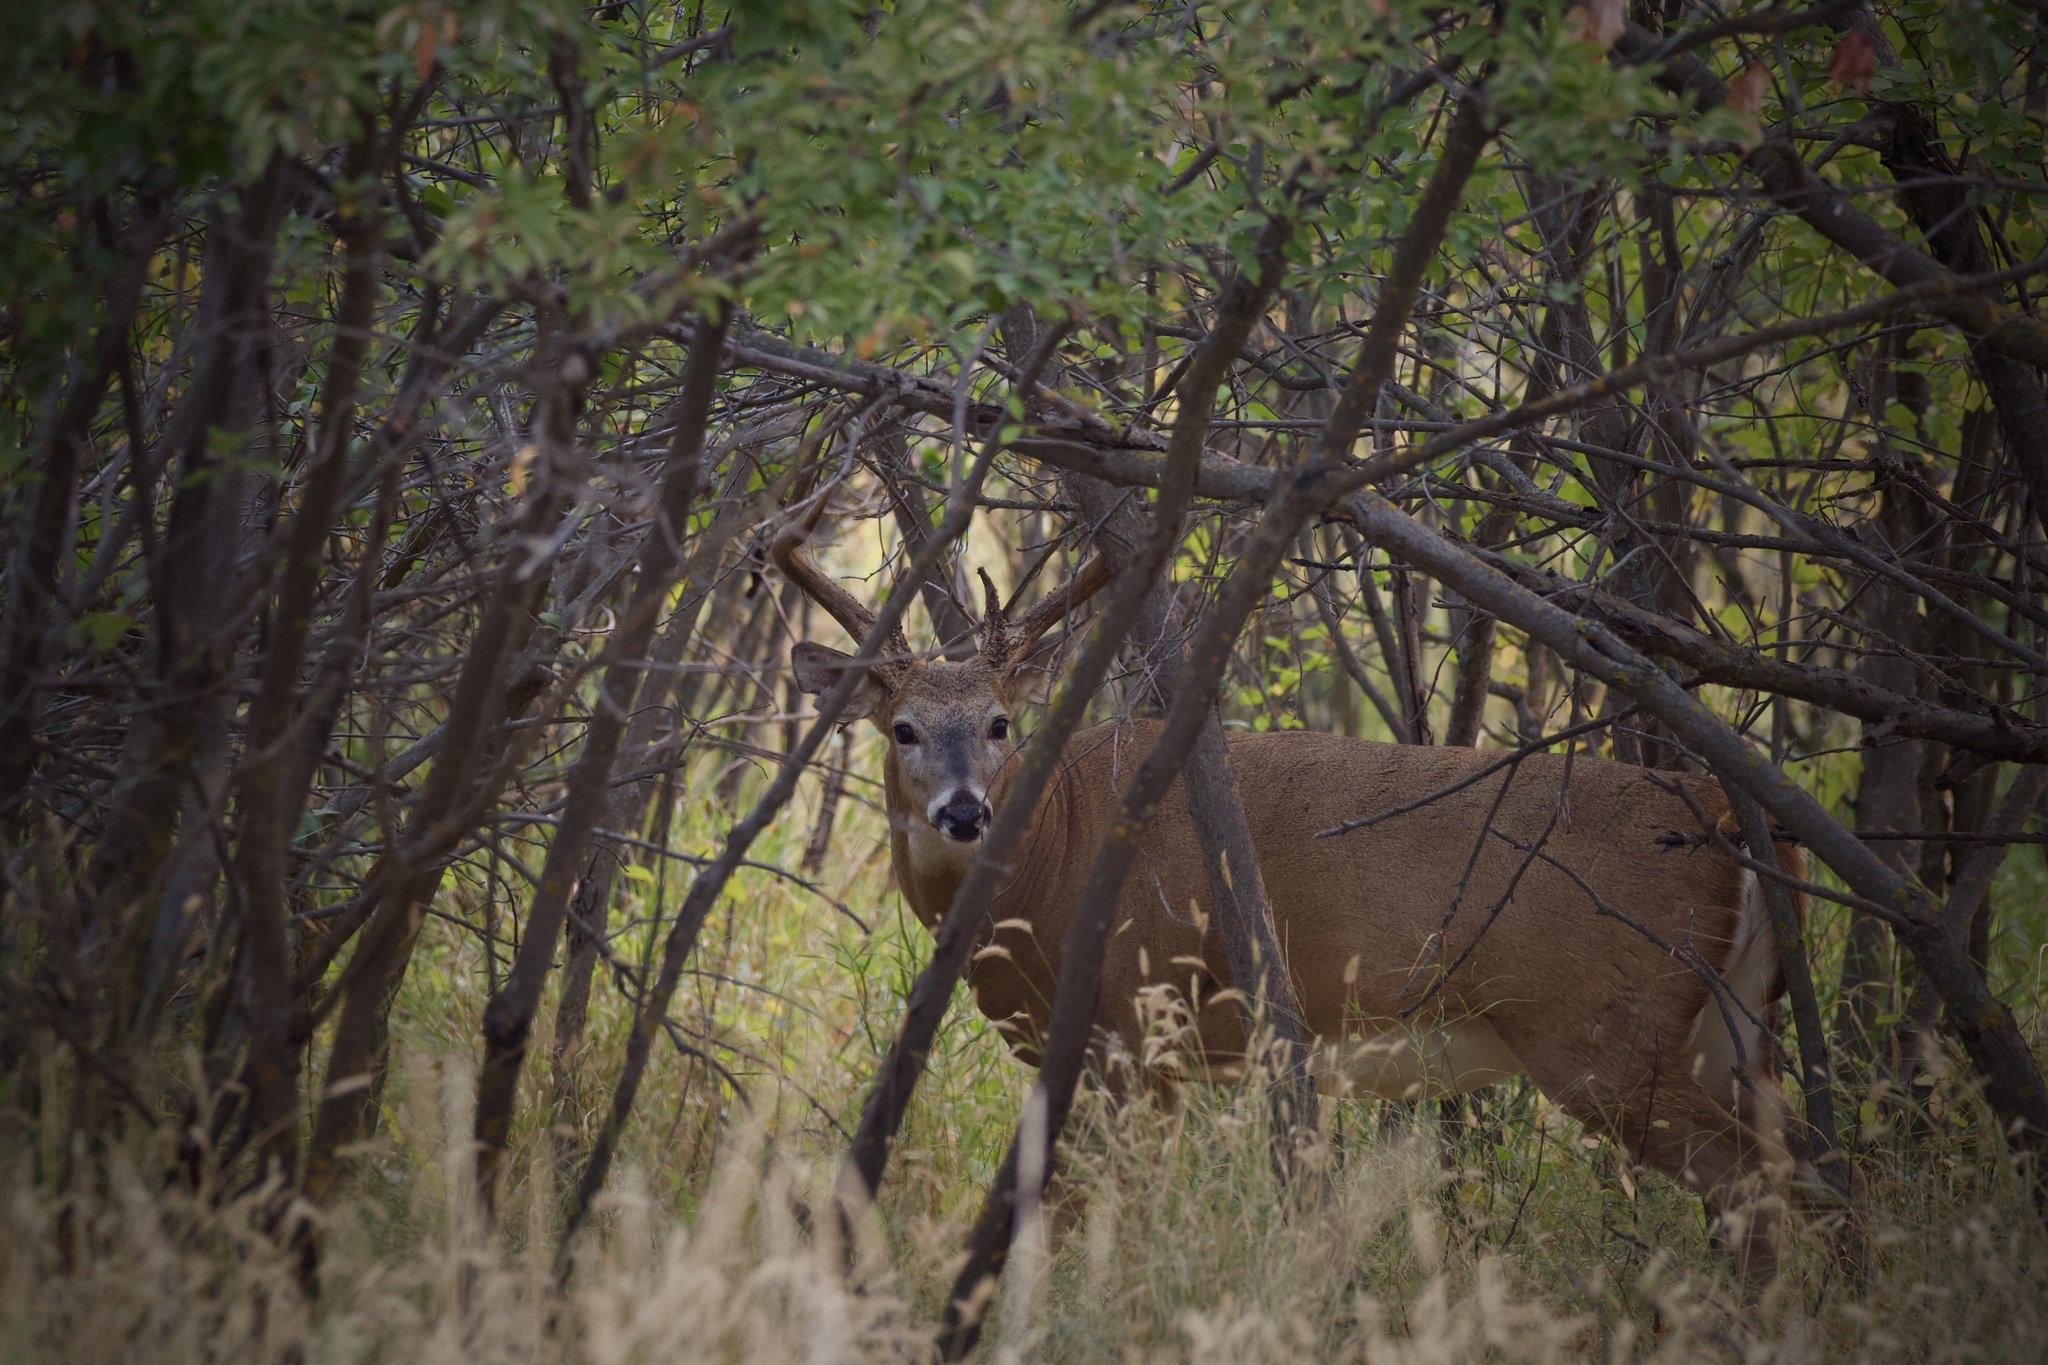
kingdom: Animalia
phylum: Chordata
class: Mammalia
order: Artiodactyla
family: Cervidae
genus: Odocoileus
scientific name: Odocoileus virginianus
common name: White-tailed deer
